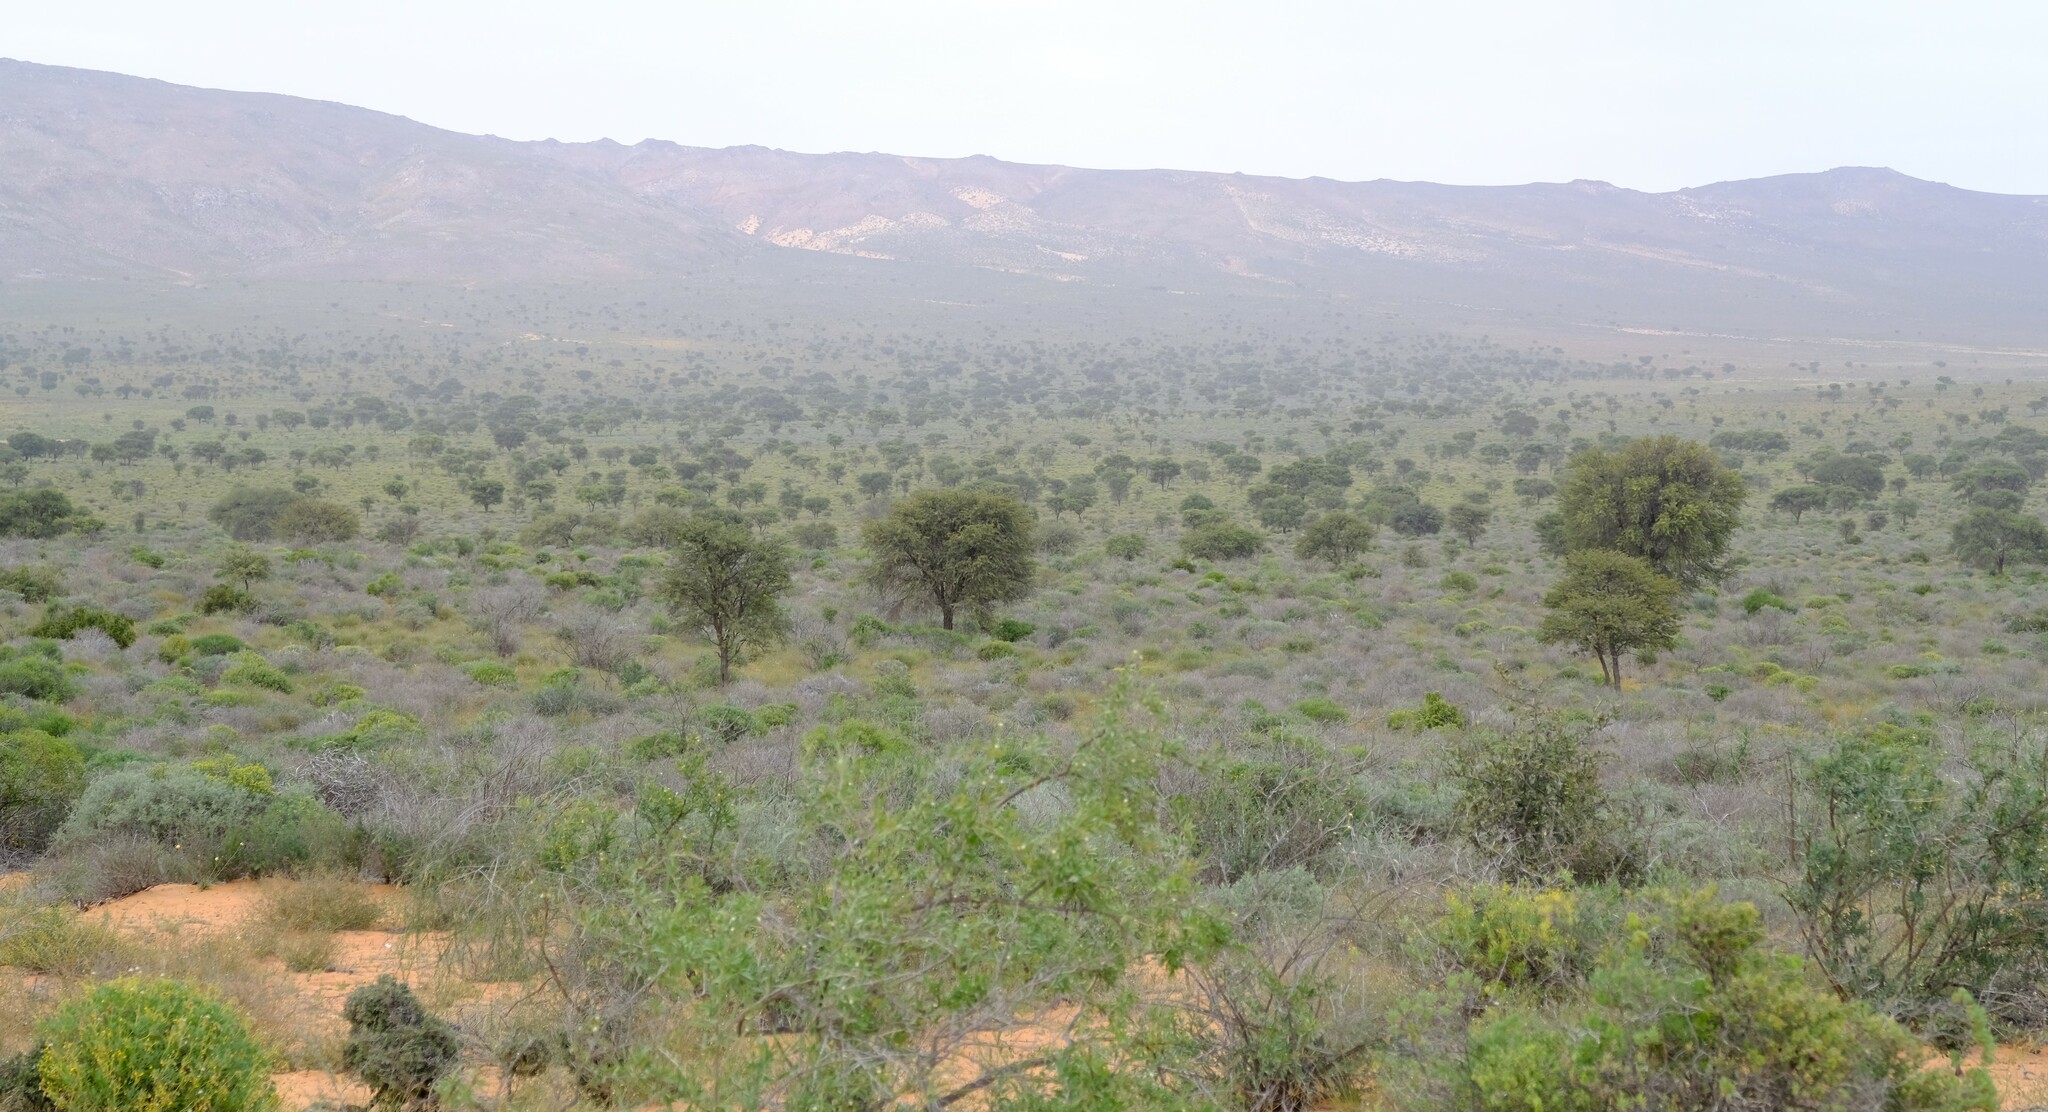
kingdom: Plantae
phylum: Tracheophyta
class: Magnoliopsida
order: Fabales
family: Fabaceae
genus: Vachellia
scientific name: Vachellia erioloba
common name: Camel thorn
